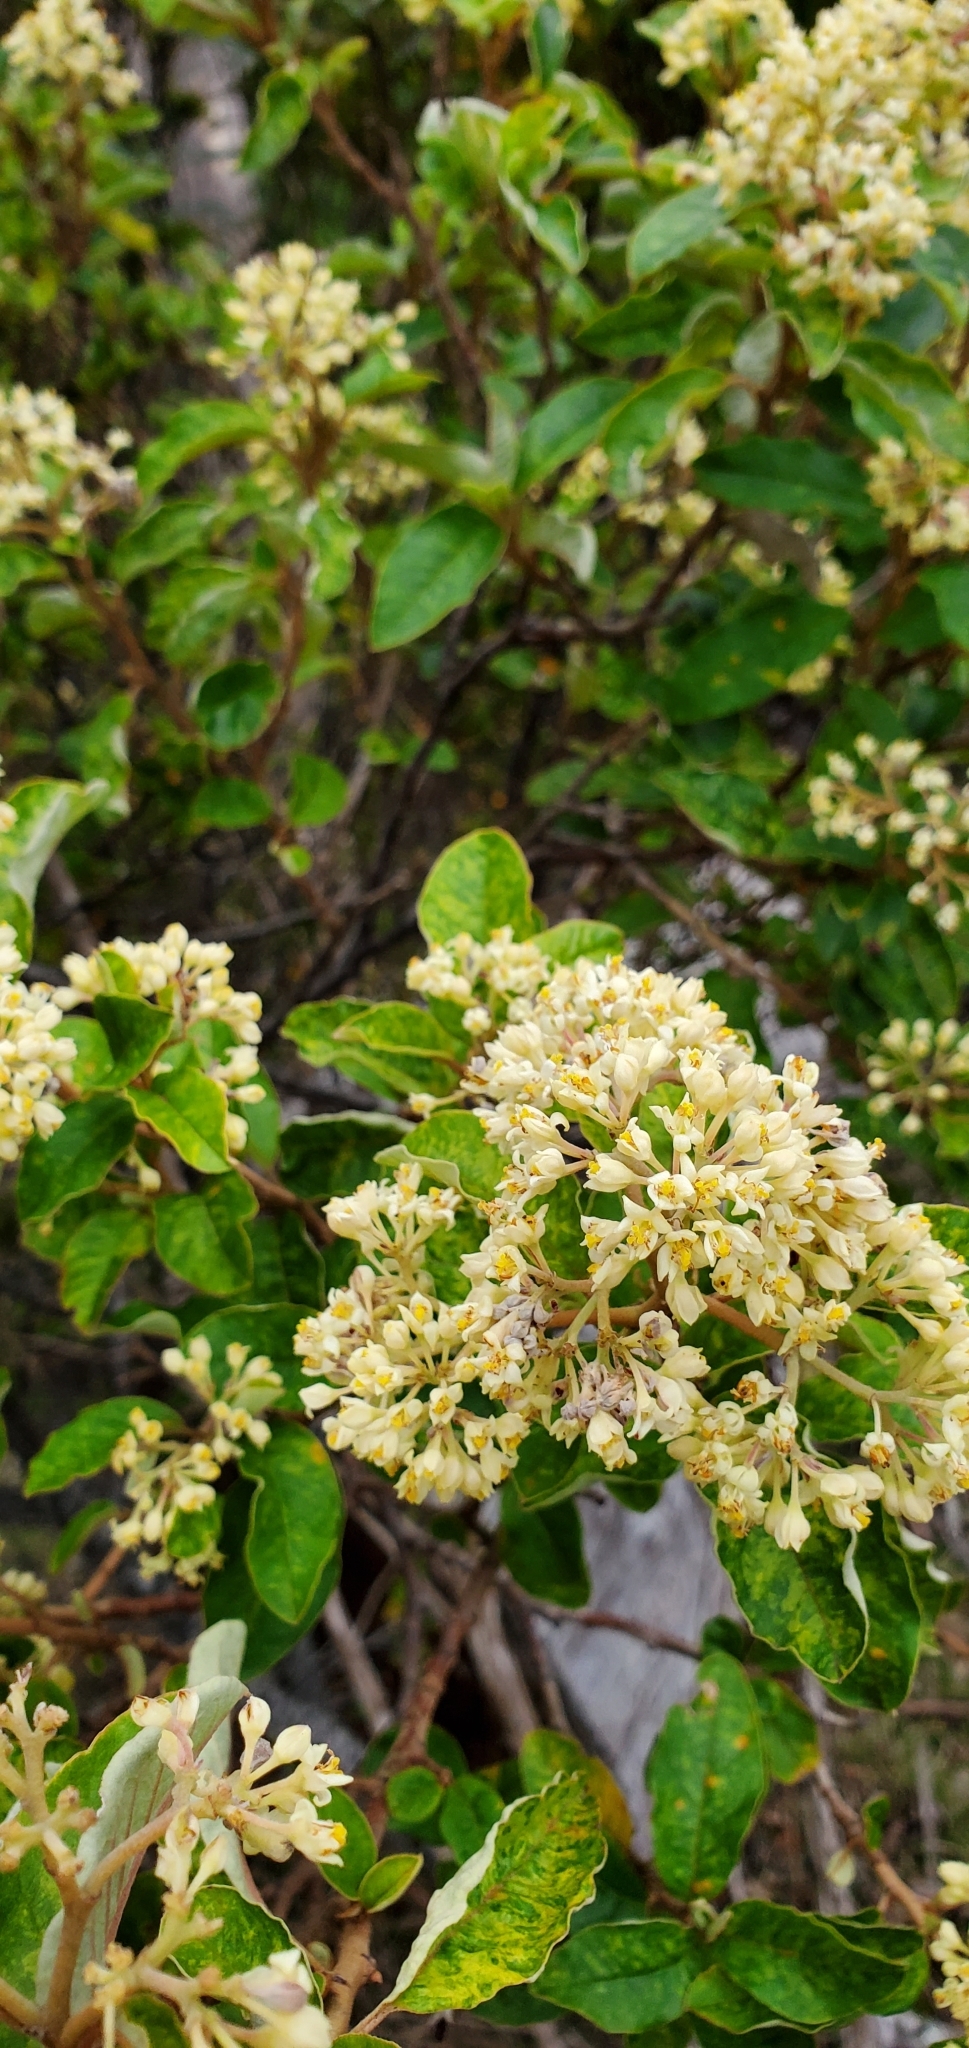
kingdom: Plantae
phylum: Tracheophyta
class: Magnoliopsida
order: Rosales
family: Rhamnaceae
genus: Pomaderris
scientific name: Pomaderris elliptica
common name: Yellow-dogwood
